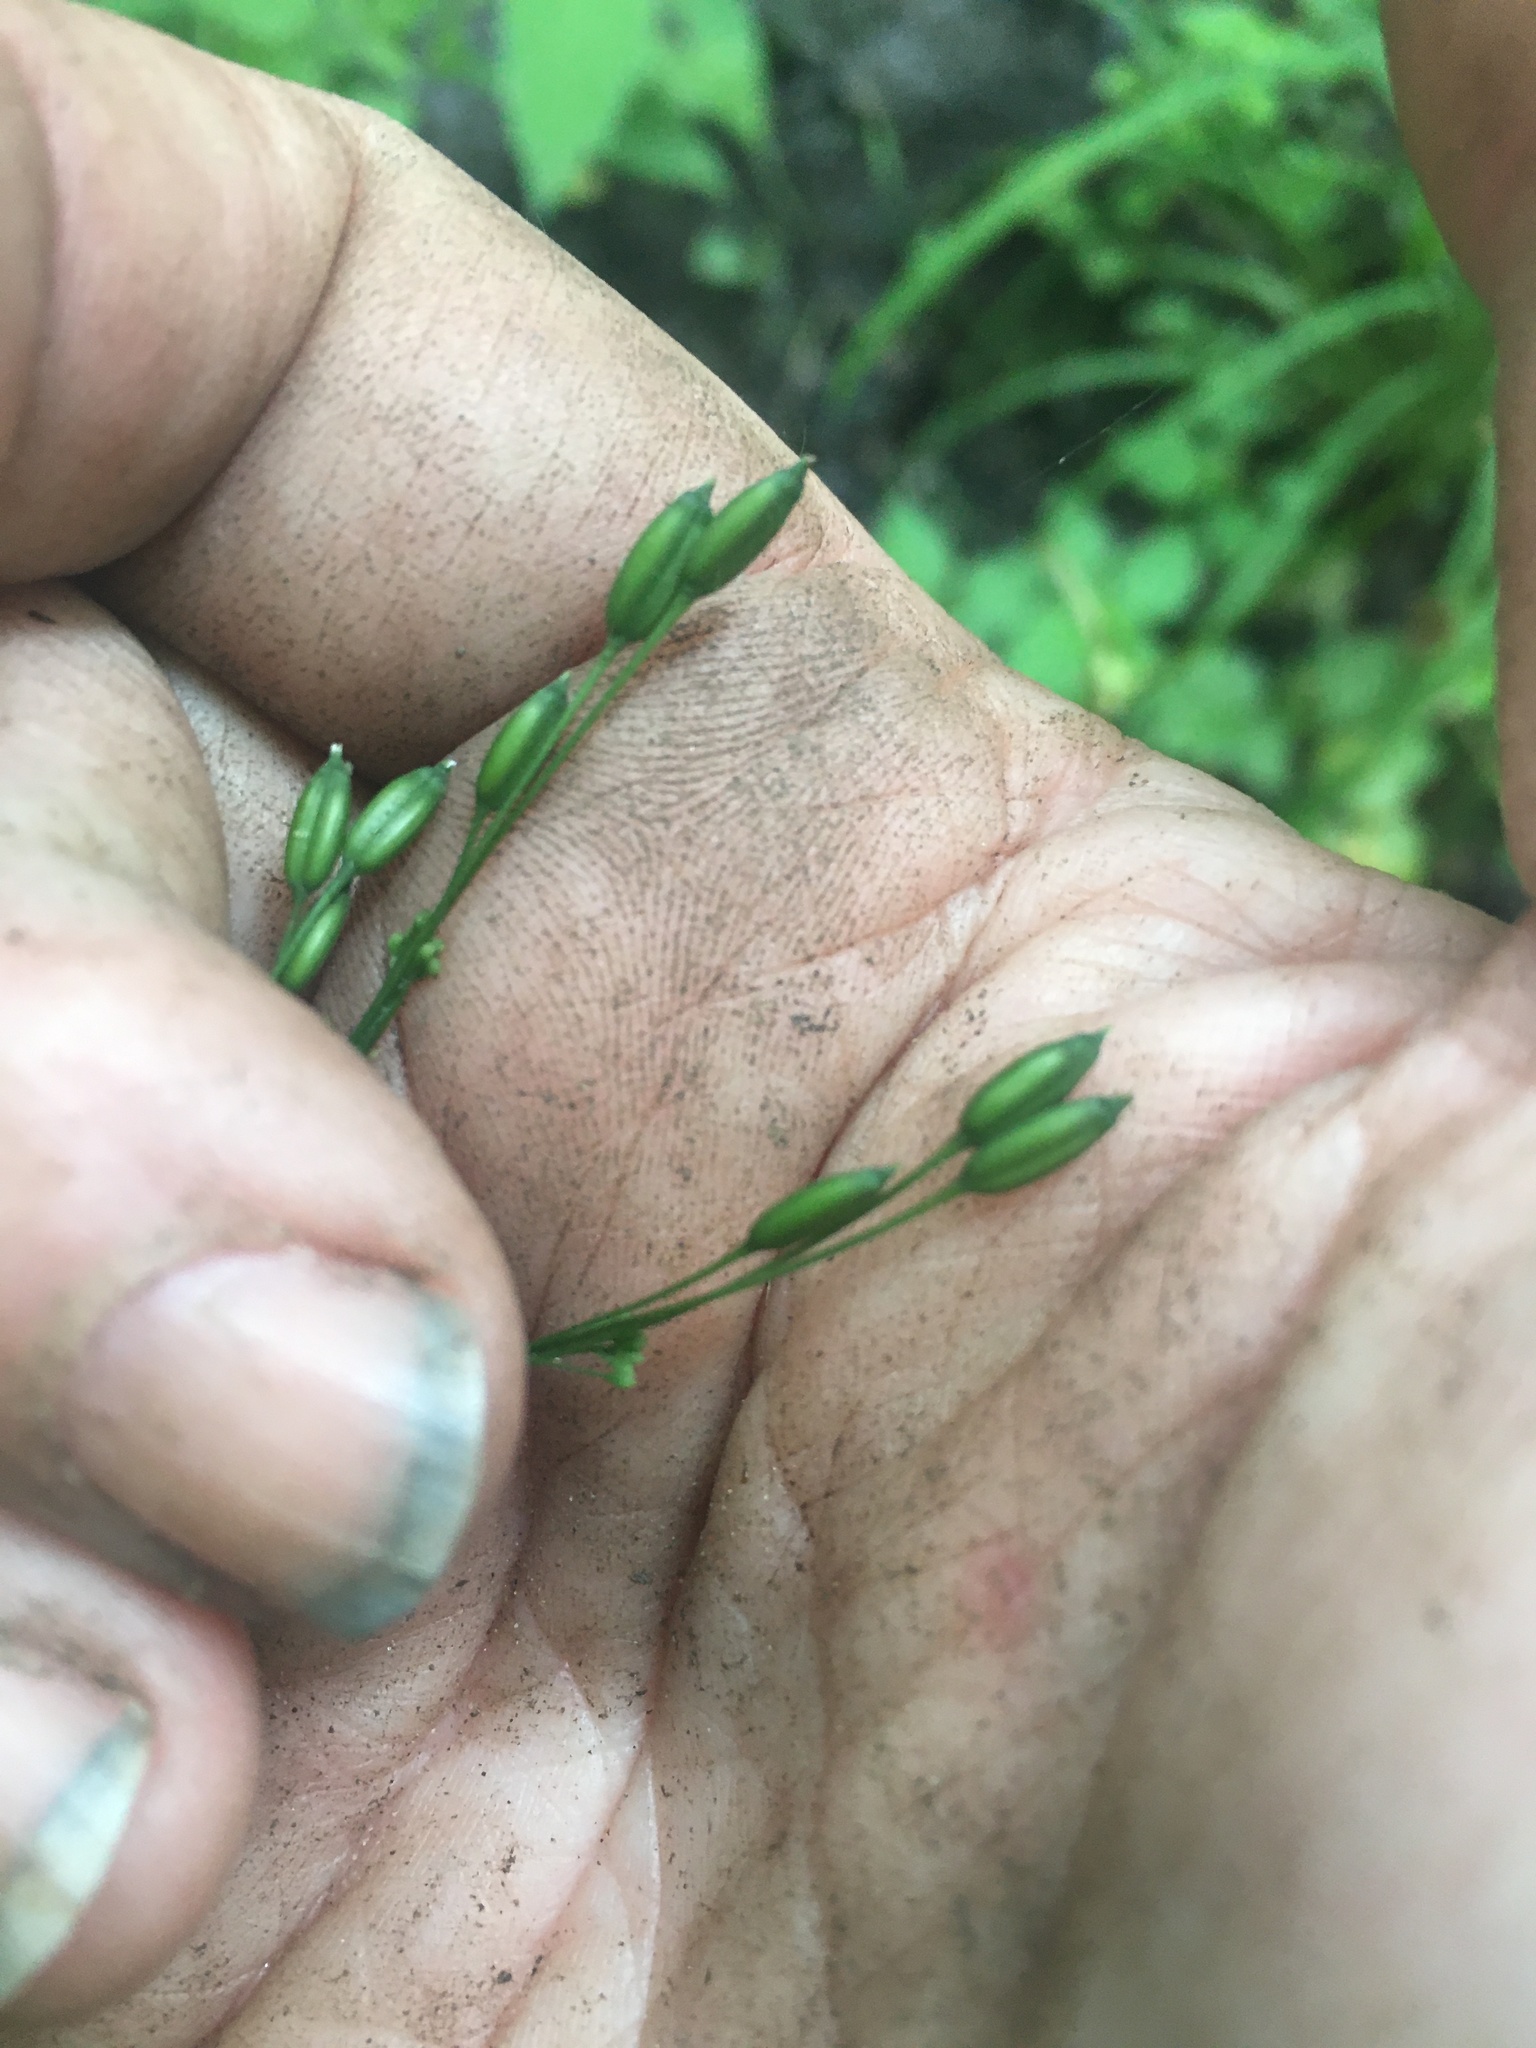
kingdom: Plantae
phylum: Tracheophyta
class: Magnoliopsida
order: Apiales
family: Apiaceae
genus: Cryptotaenia
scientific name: Cryptotaenia canadensis
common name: Honewort
